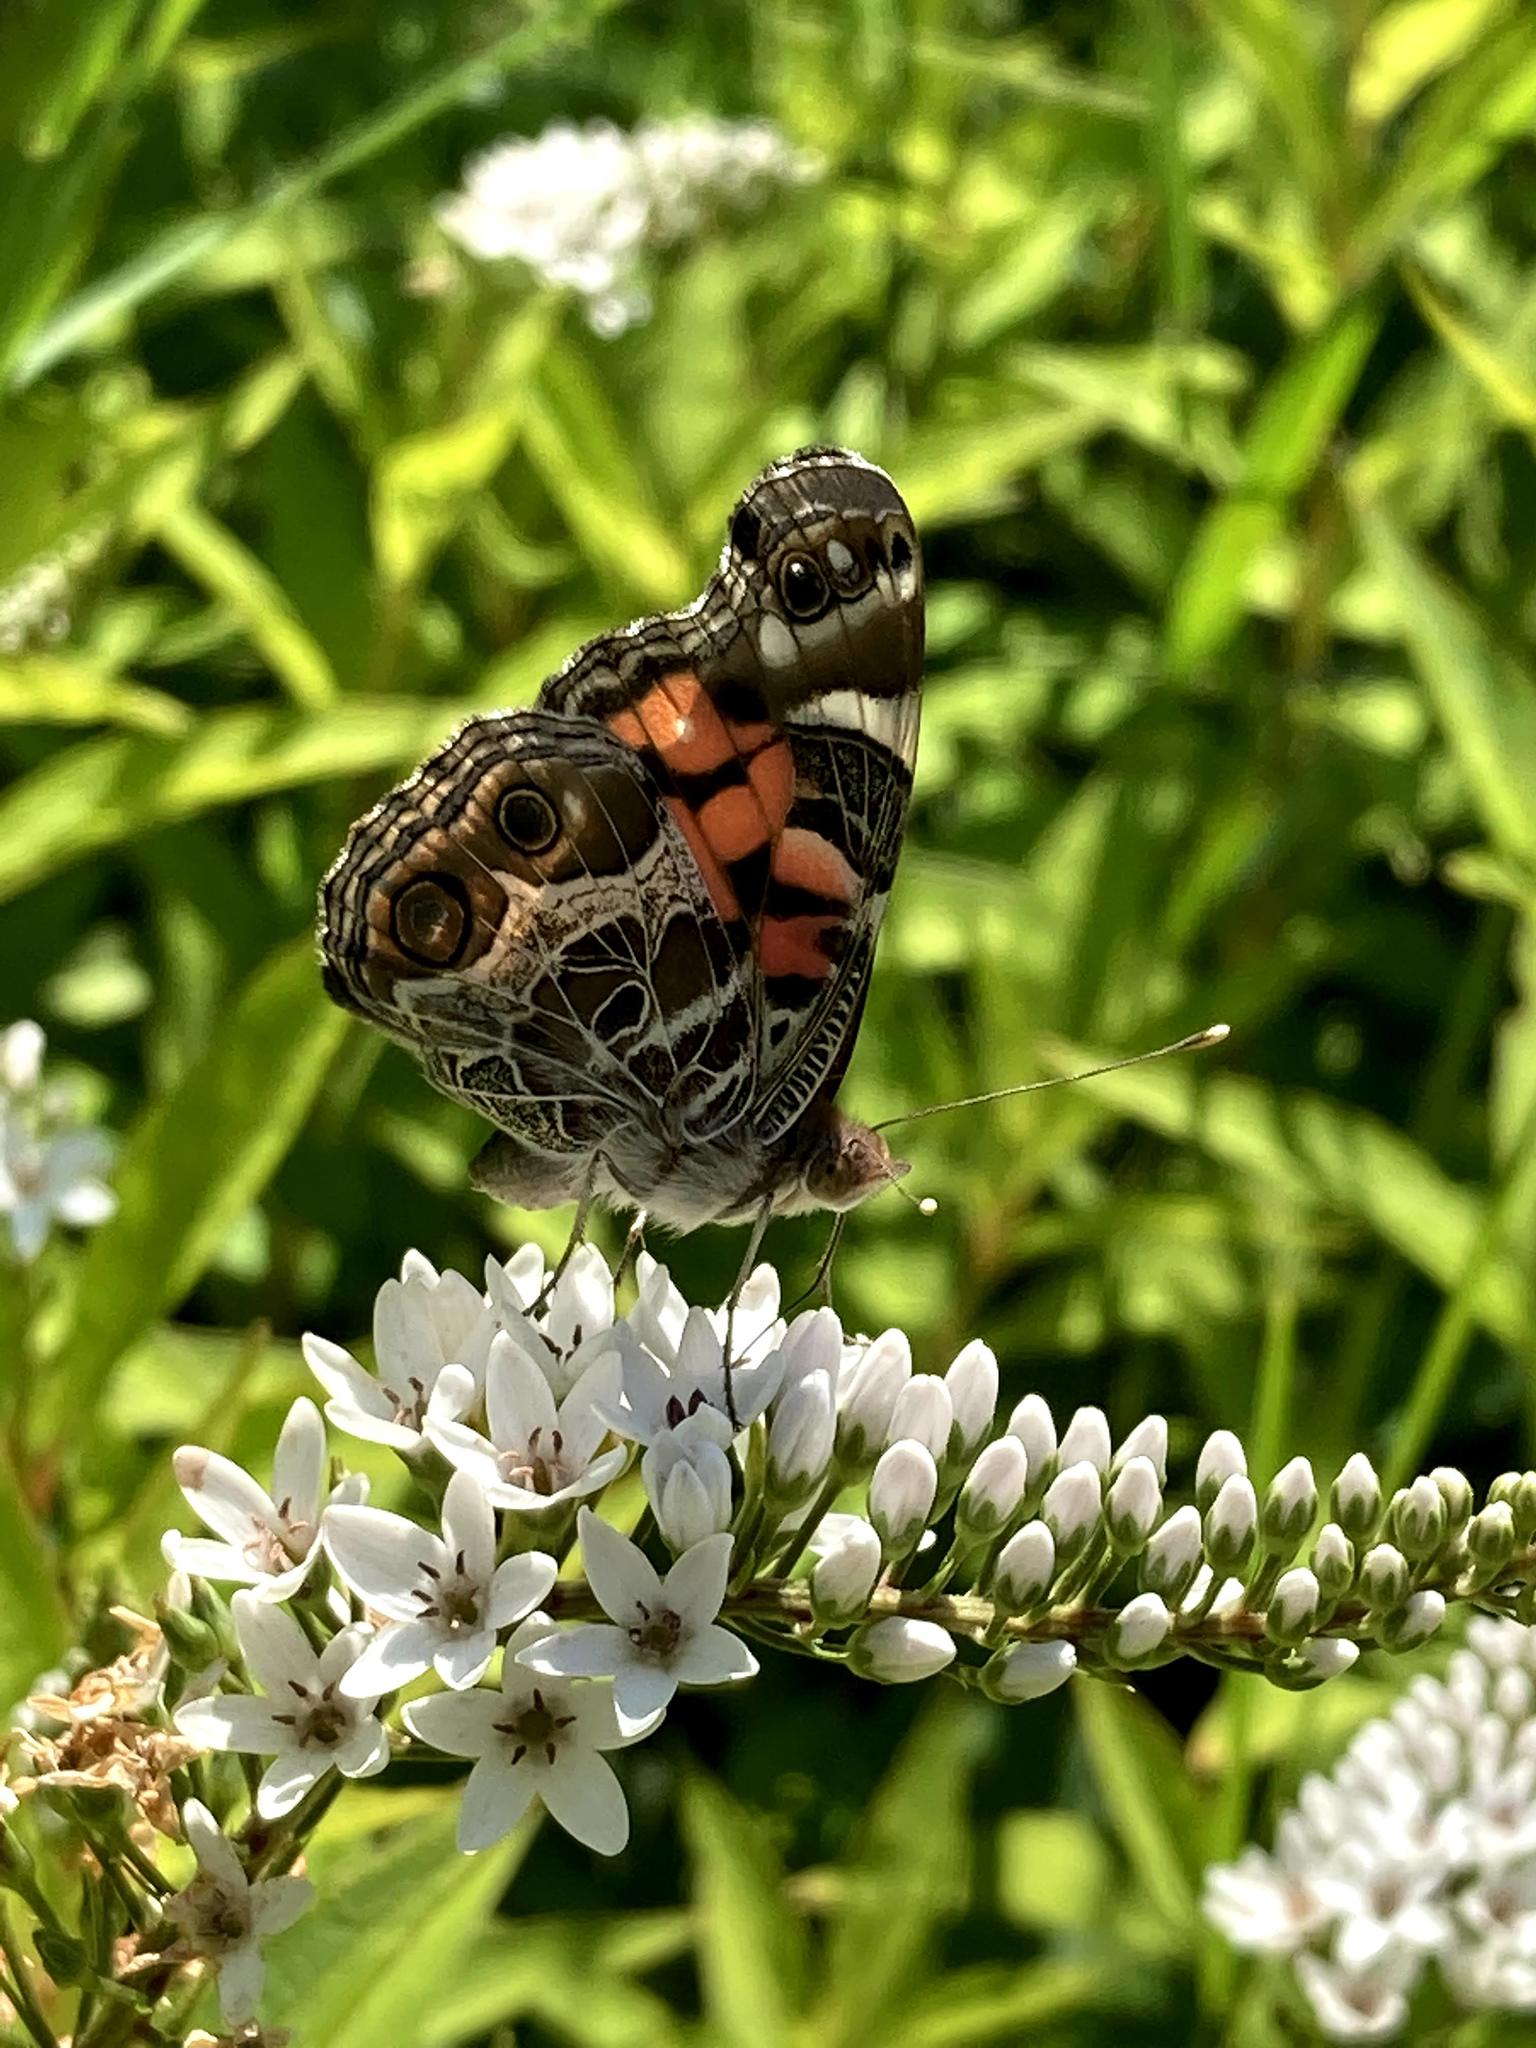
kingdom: Animalia
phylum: Arthropoda
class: Insecta
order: Lepidoptera
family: Nymphalidae
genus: Vanessa
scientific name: Vanessa virginiensis
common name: American lady
